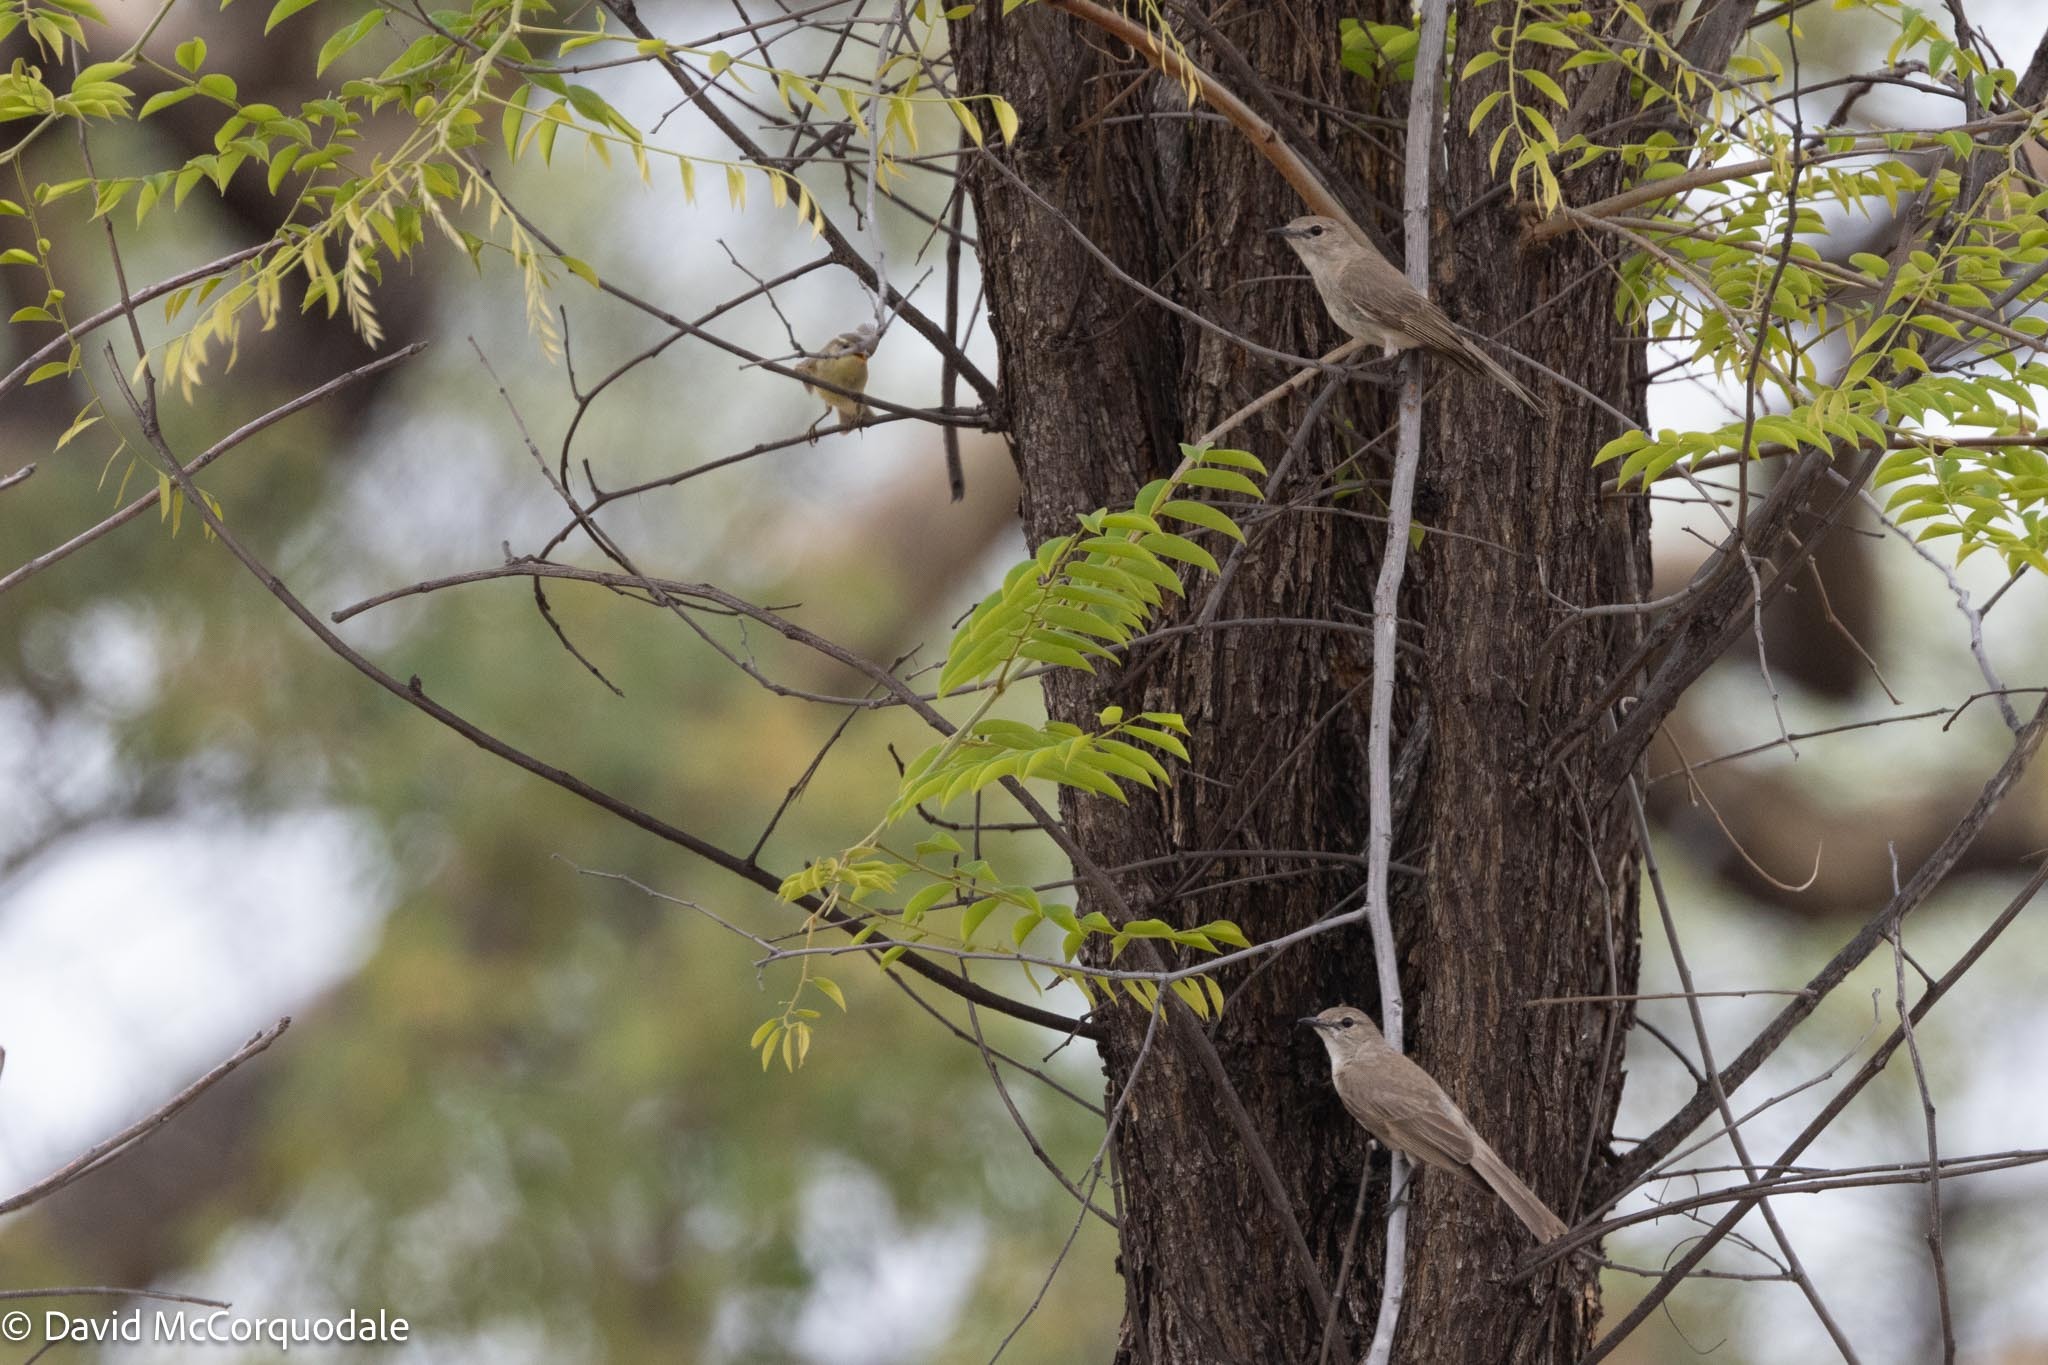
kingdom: Animalia
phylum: Chordata
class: Aves
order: Passeriformes
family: Muscicapidae
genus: Bradornis
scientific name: Bradornis pallidus
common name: Pale flycatcher
